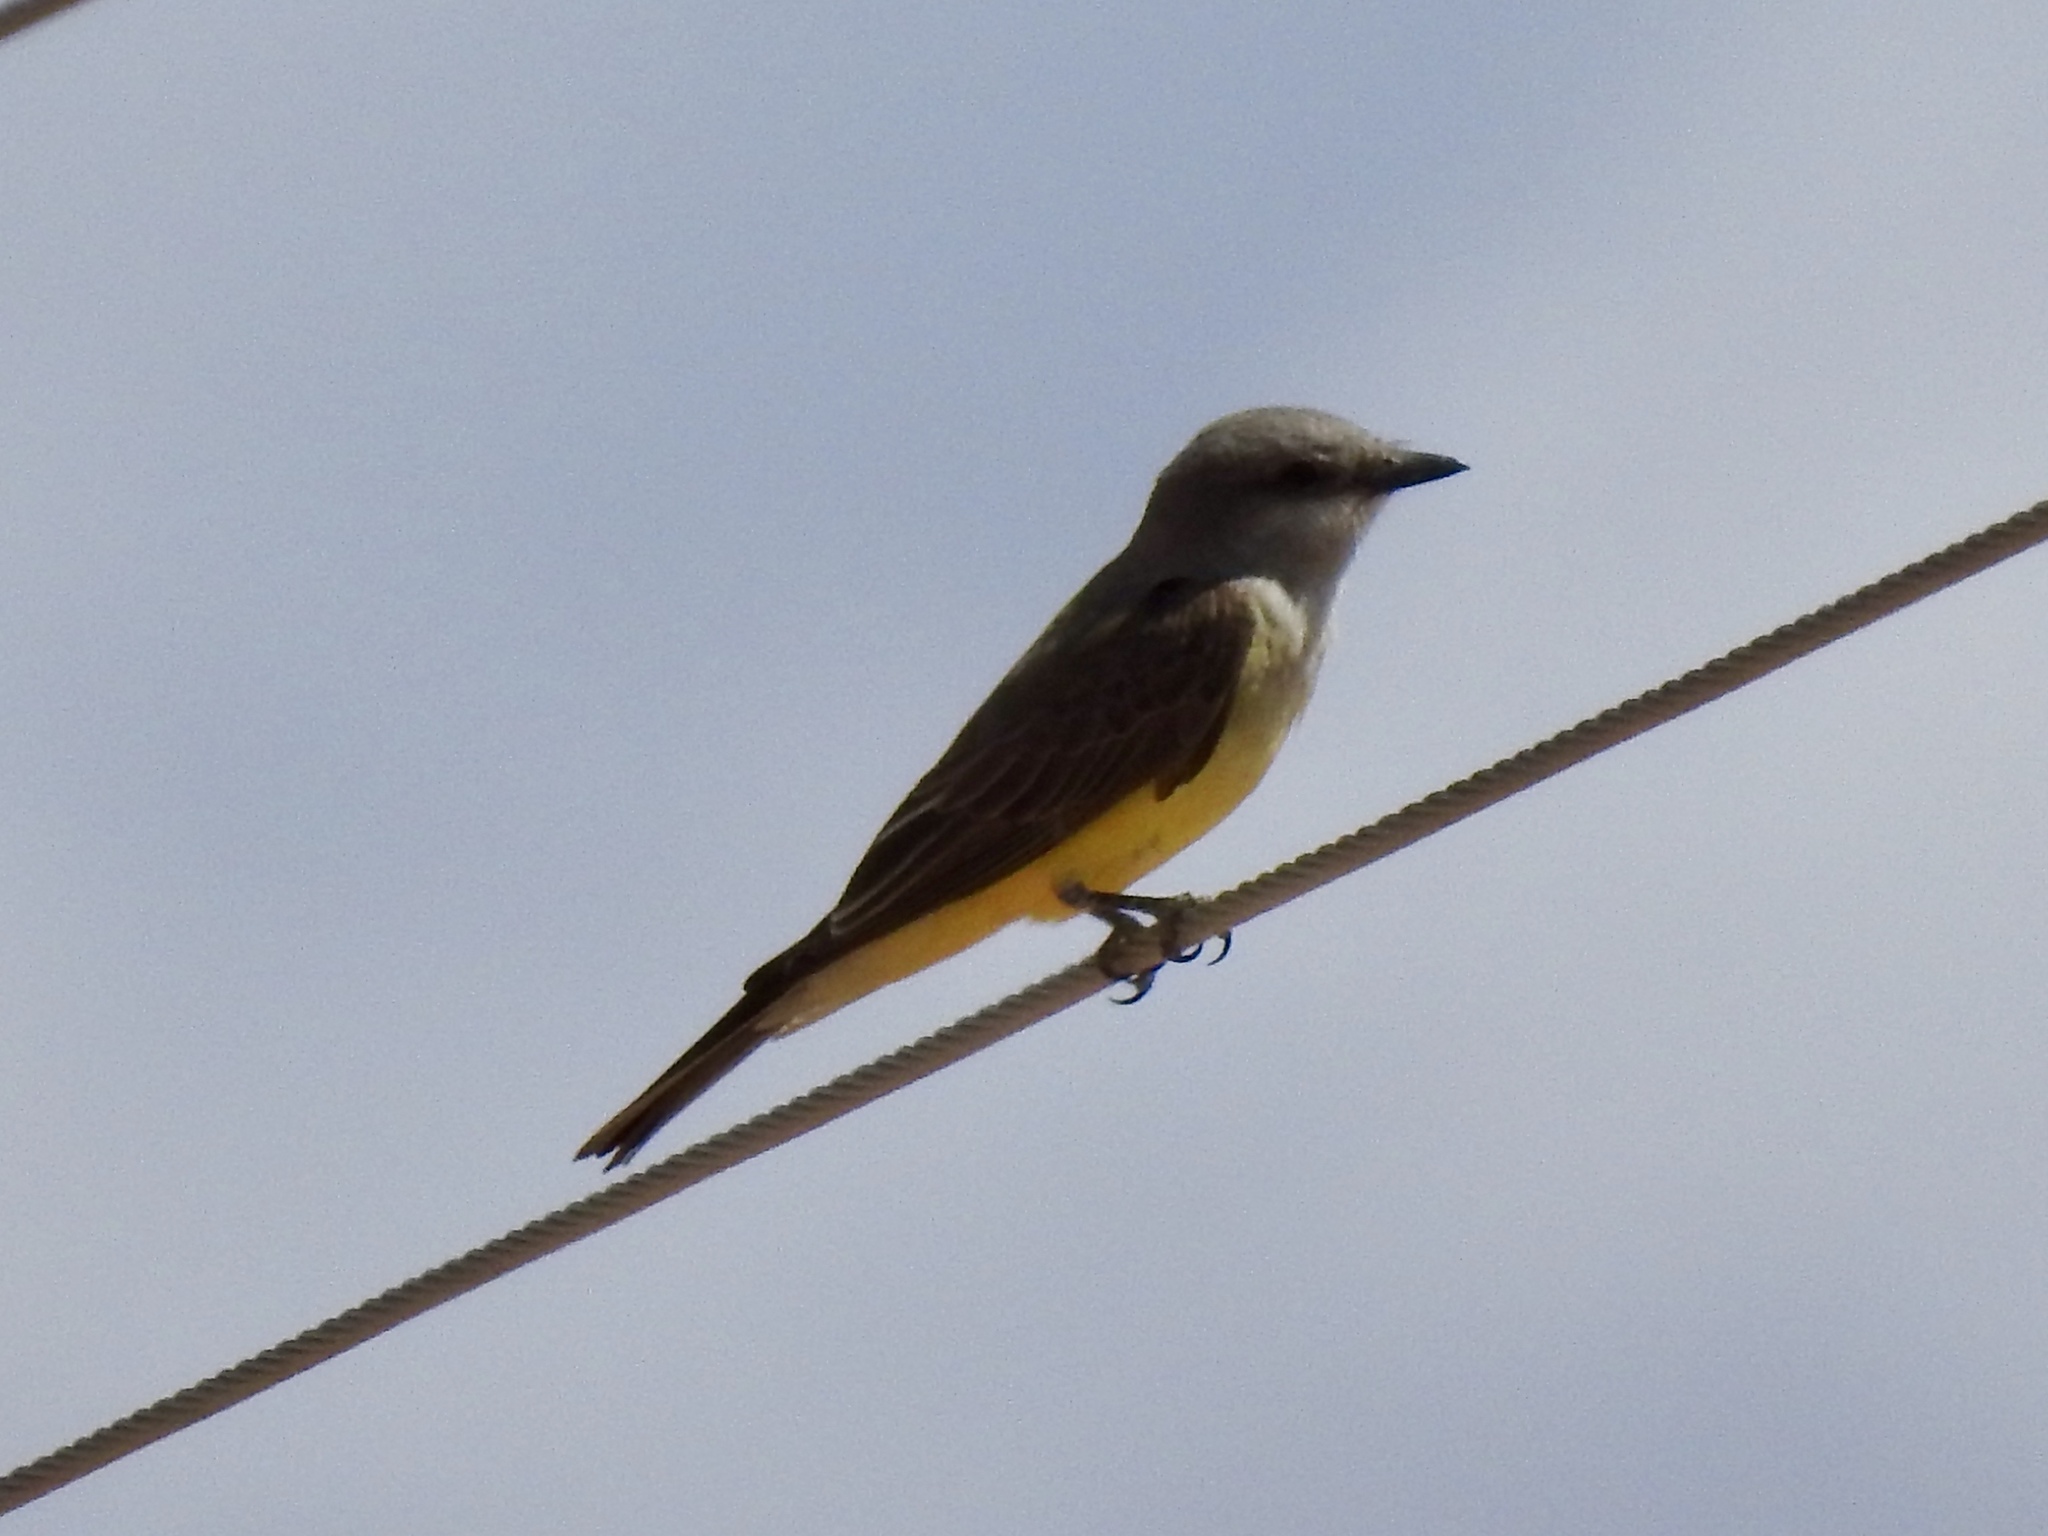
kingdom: Animalia
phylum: Chordata
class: Aves
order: Passeriformes
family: Tyrannidae
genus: Tyrannus
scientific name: Tyrannus verticalis
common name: Western kingbird
